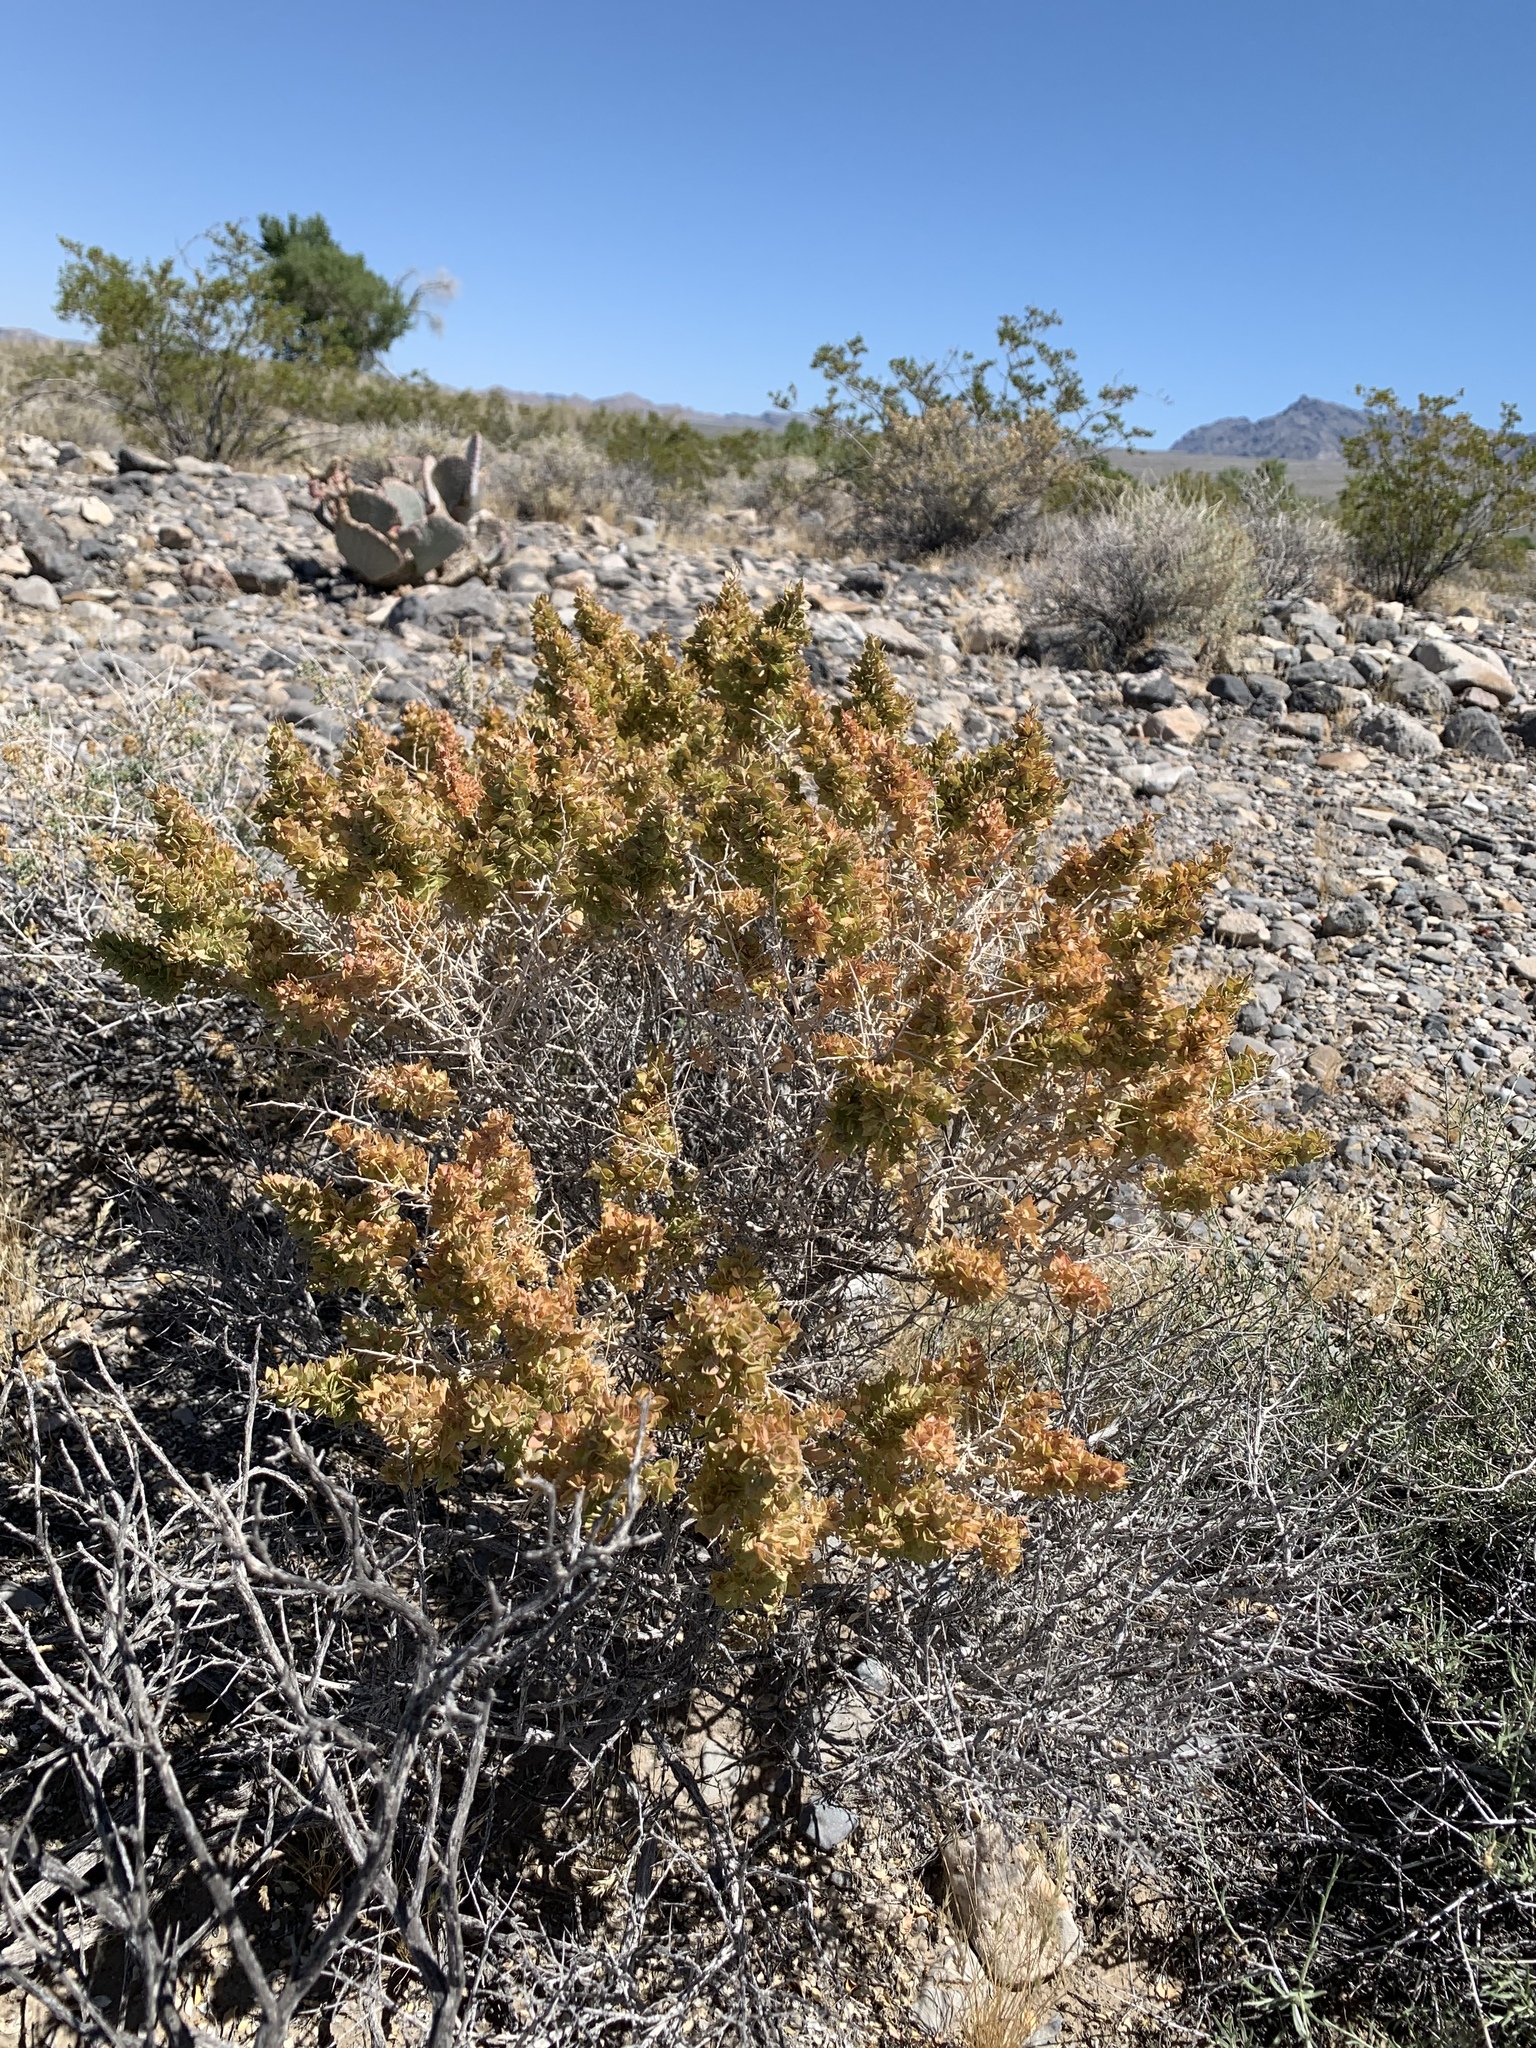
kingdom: Plantae
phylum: Tracheophyta
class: Magnoliopsida
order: Caryophyllales
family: Amaranthaceae
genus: Atriplex
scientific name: Atriplex confertifolia
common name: Shadscale
